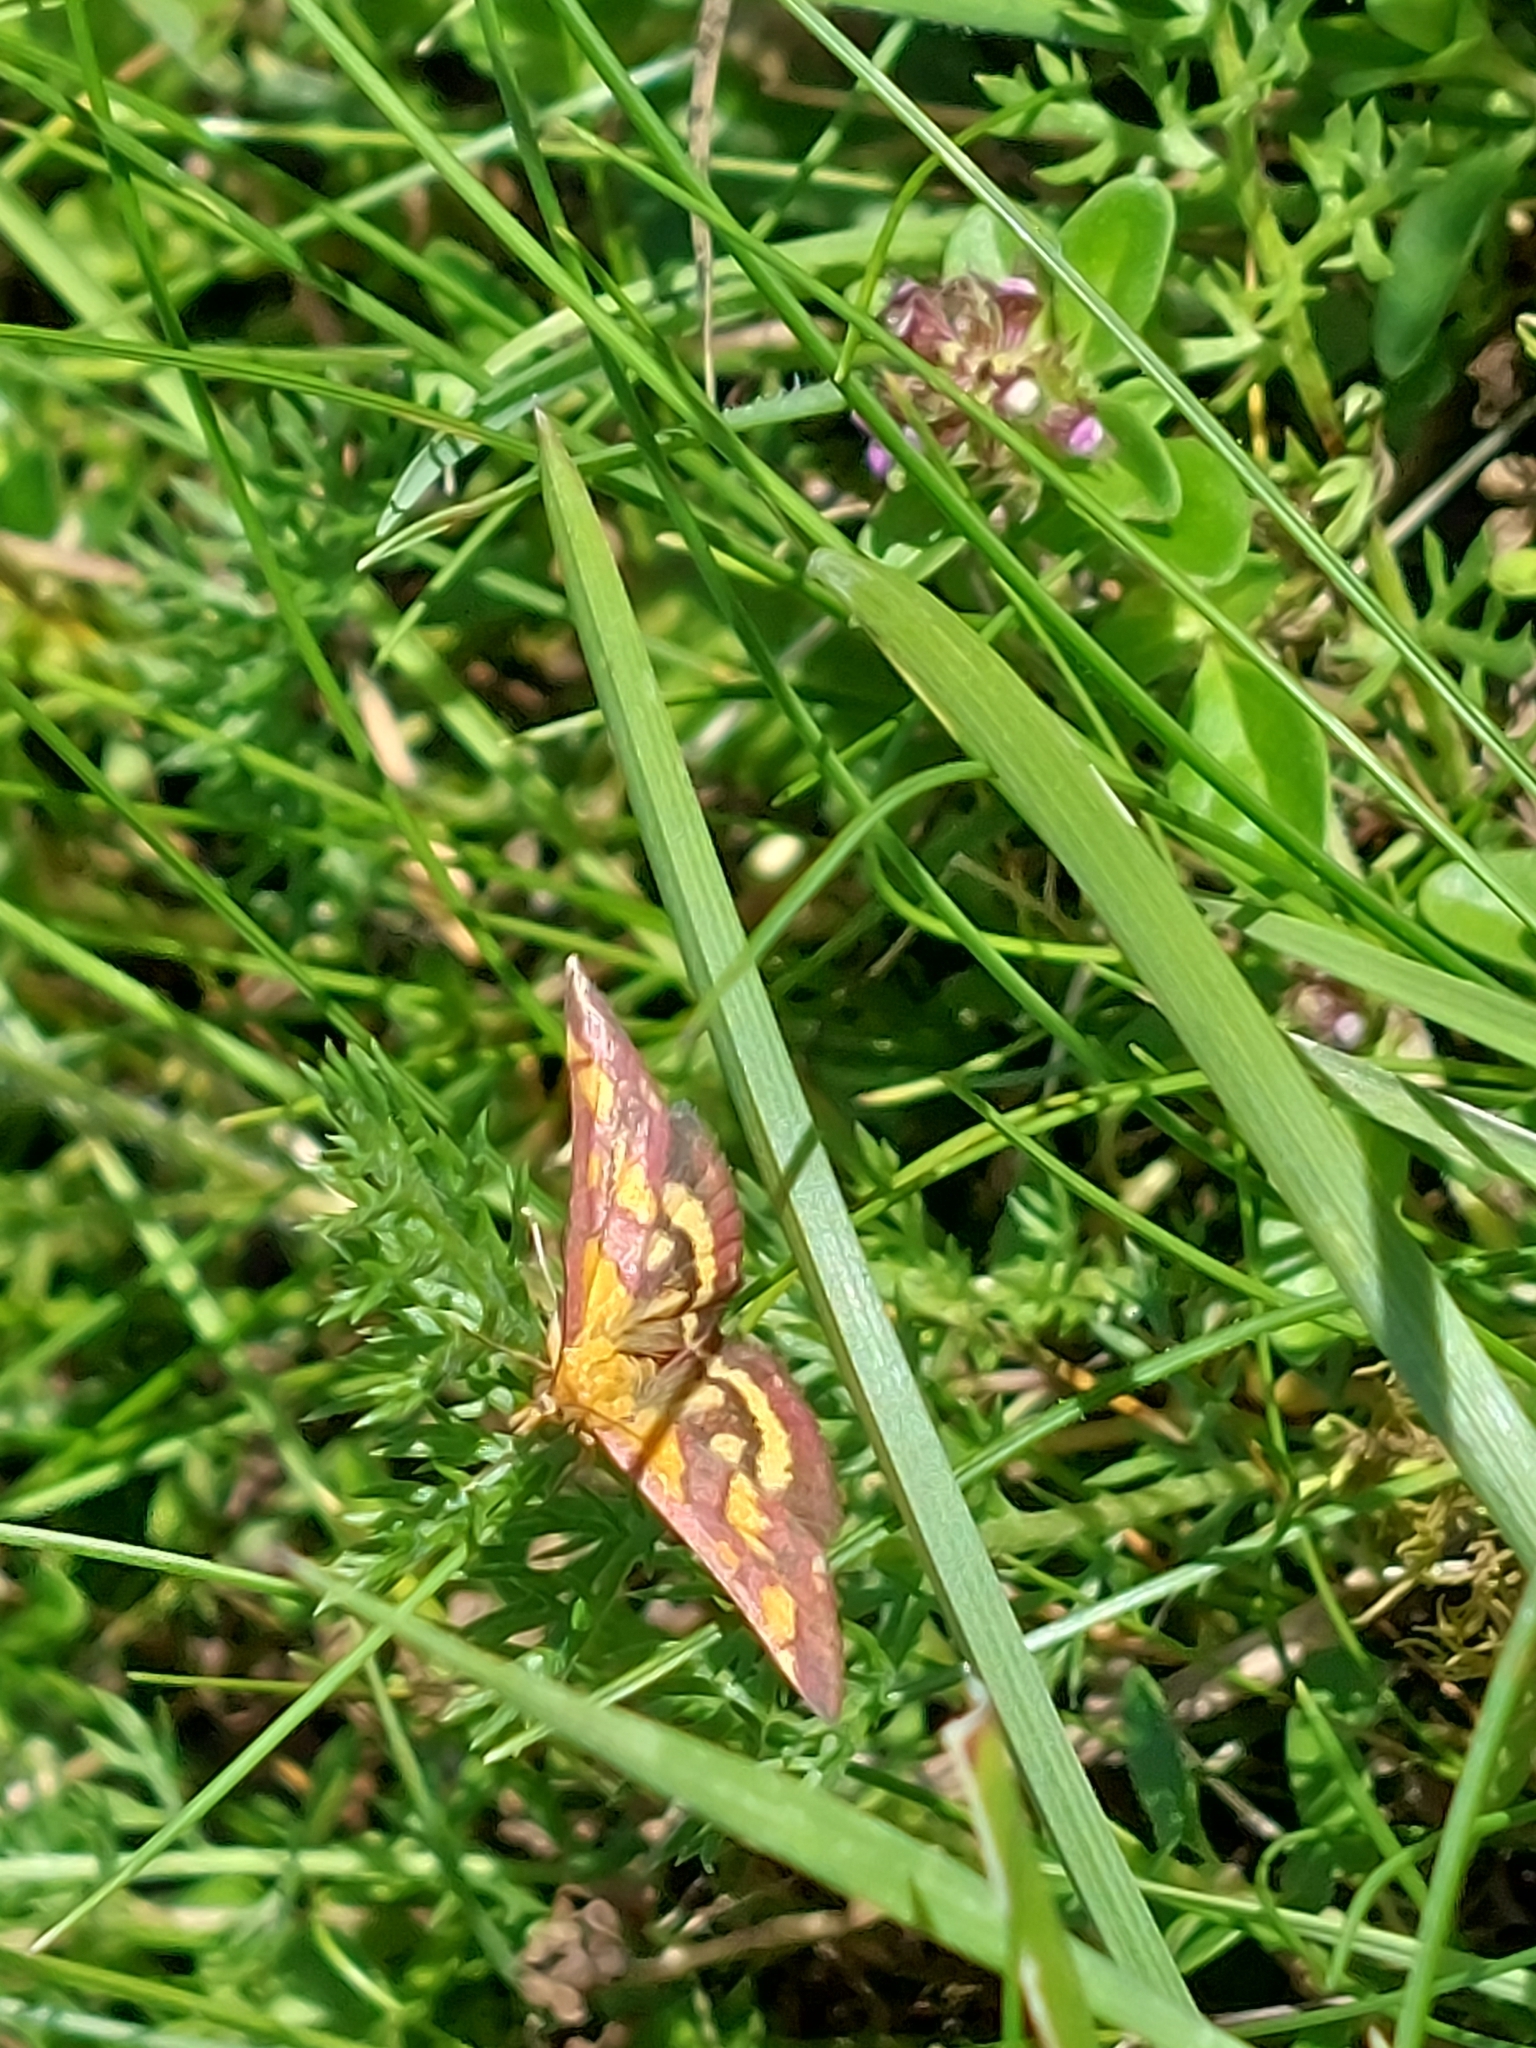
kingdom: Animalia
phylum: Arthropoda
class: Insecta
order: Lepidoptera
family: Crambidae
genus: Pyrausta
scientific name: Pyrausta purpuralis
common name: Common purple & gold
